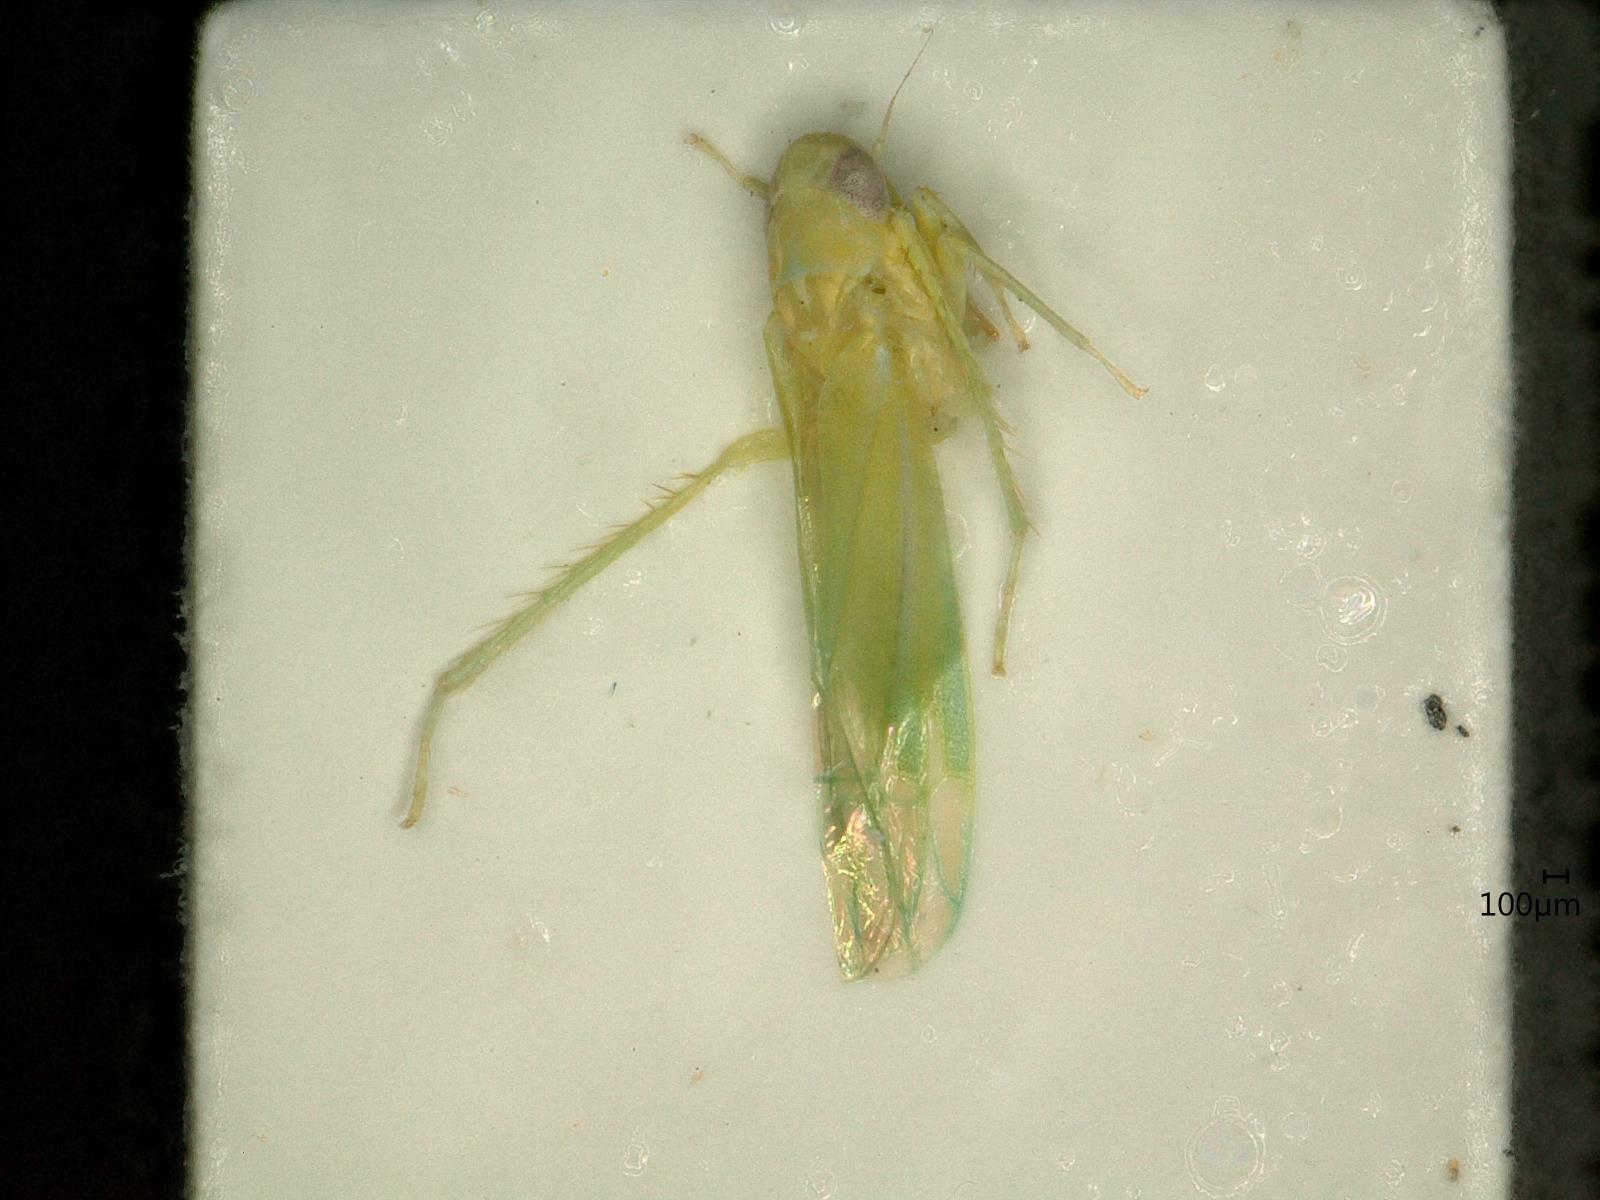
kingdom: Animalia
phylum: Arthropoda
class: Insecta
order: Hemiptera
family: Cicadellidae
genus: Hebata
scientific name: Hebata vitis
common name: The smaller green leafhopper
